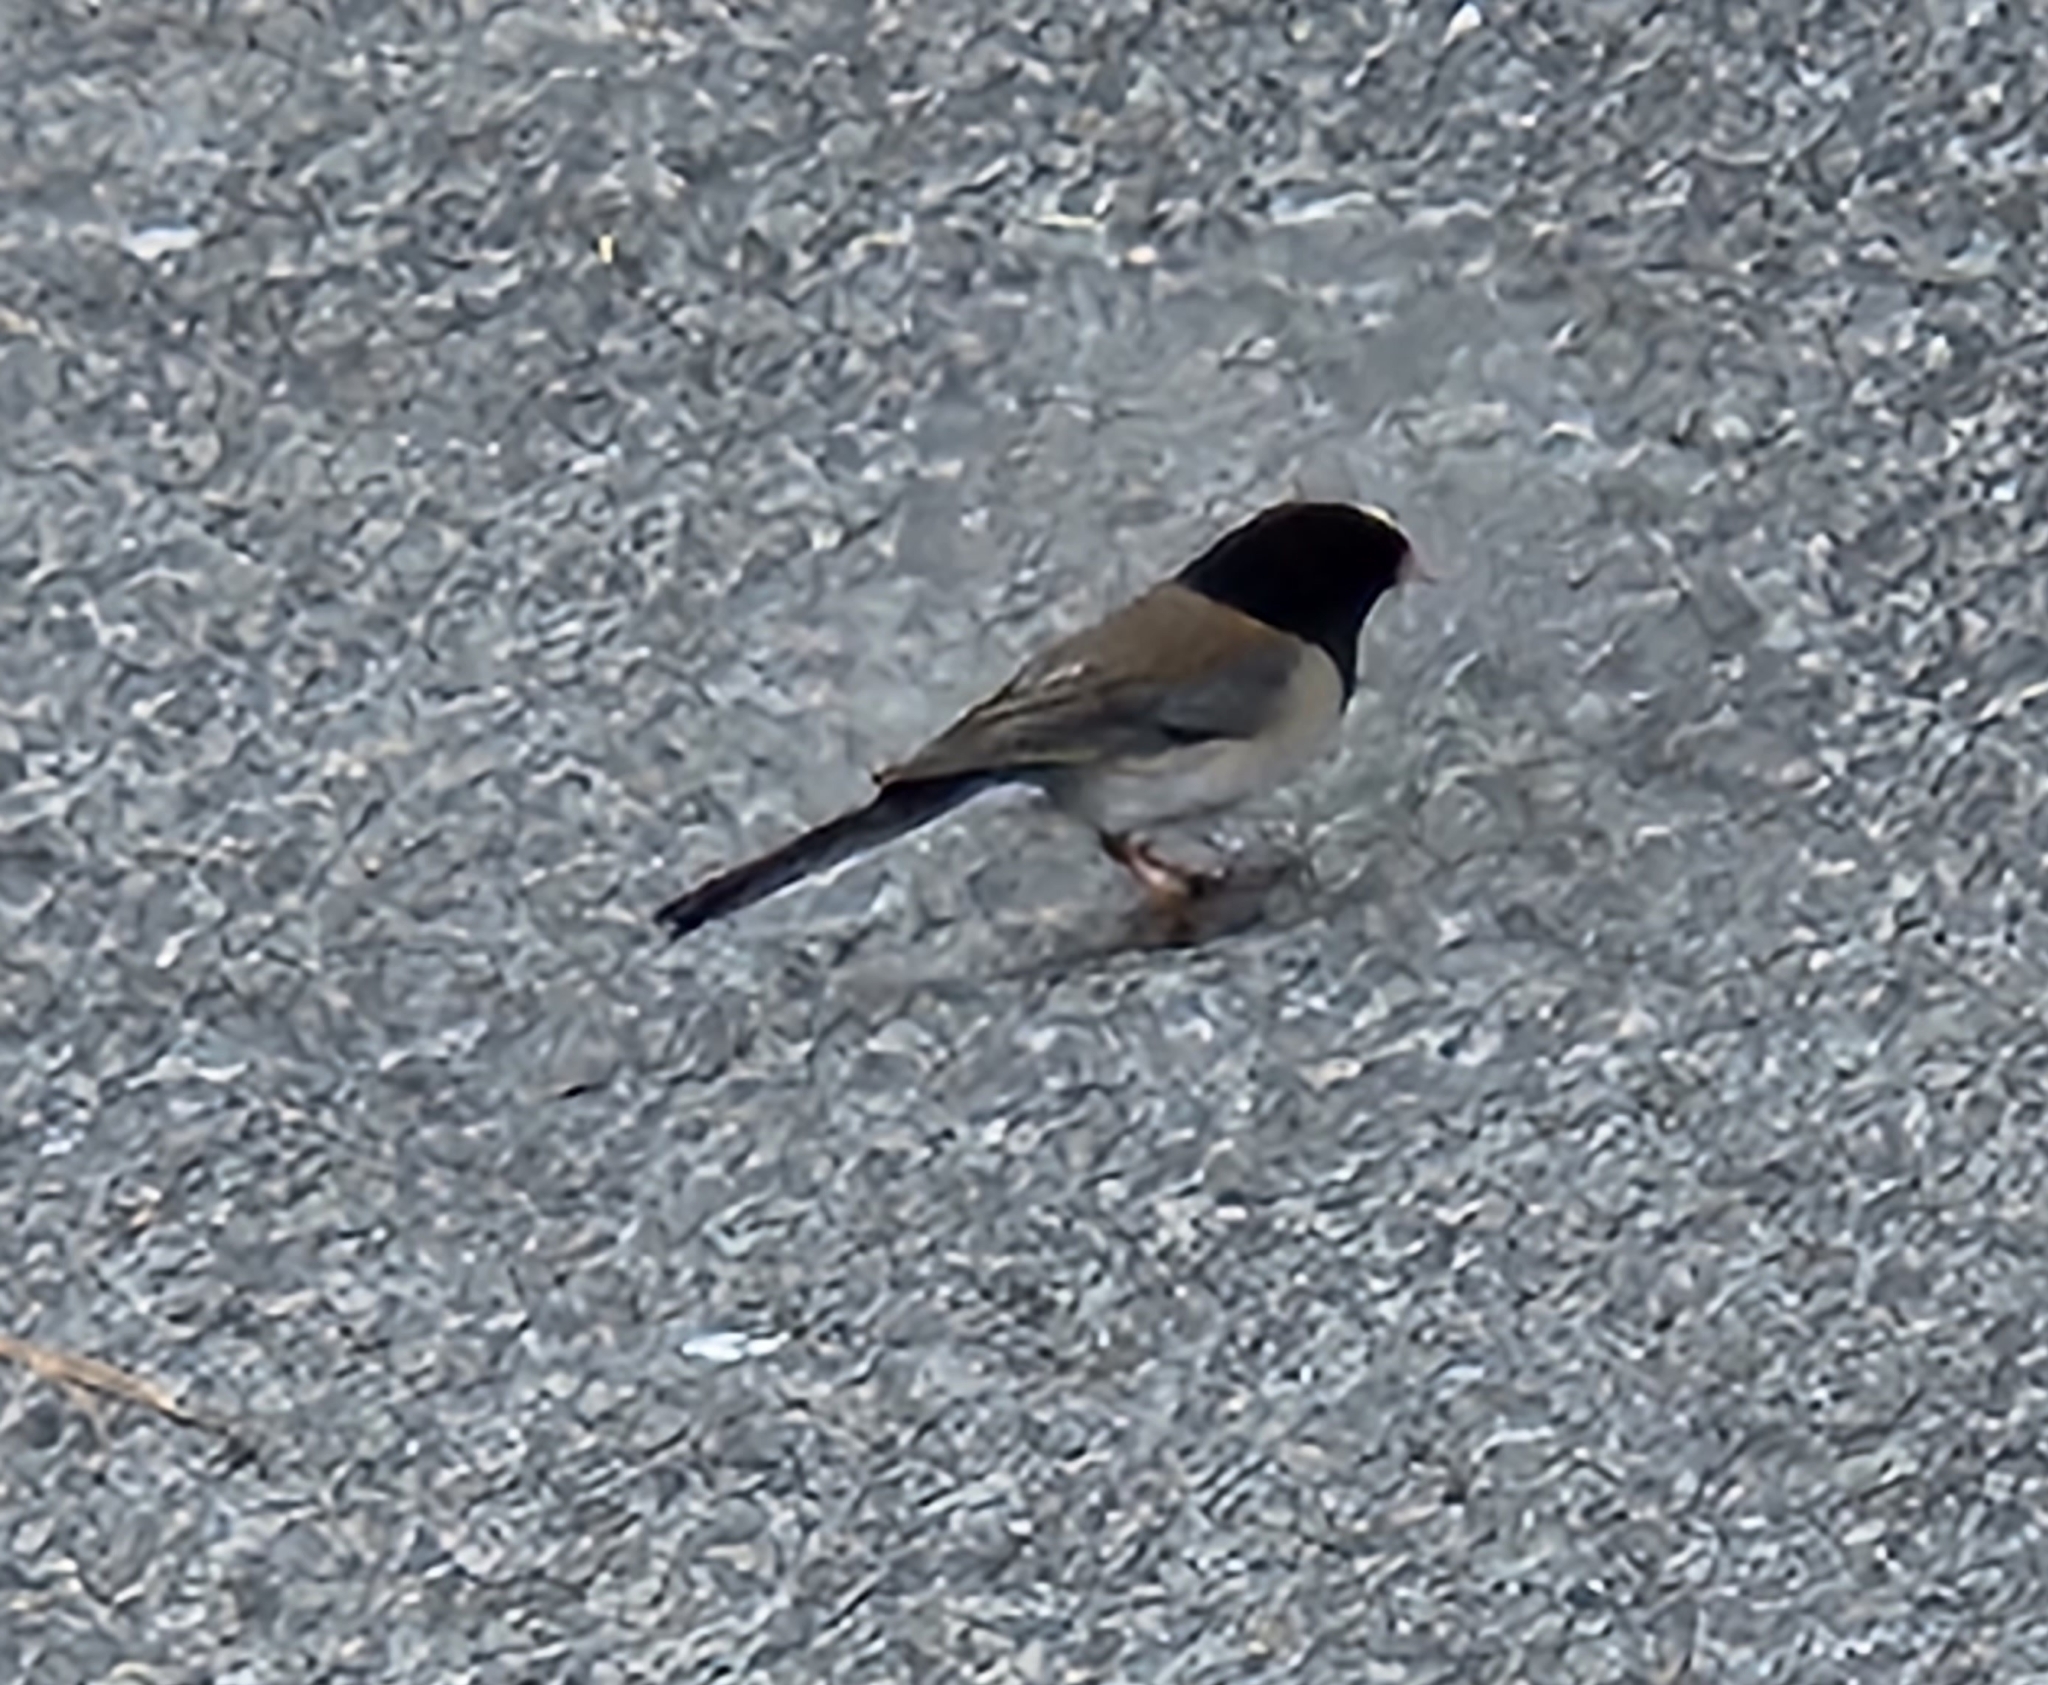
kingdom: Animalia
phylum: Chordata
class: Aves
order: Passeriformes
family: Passerellidae
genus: Junco
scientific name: Junco hyemalis
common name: Dark-eyed junco
